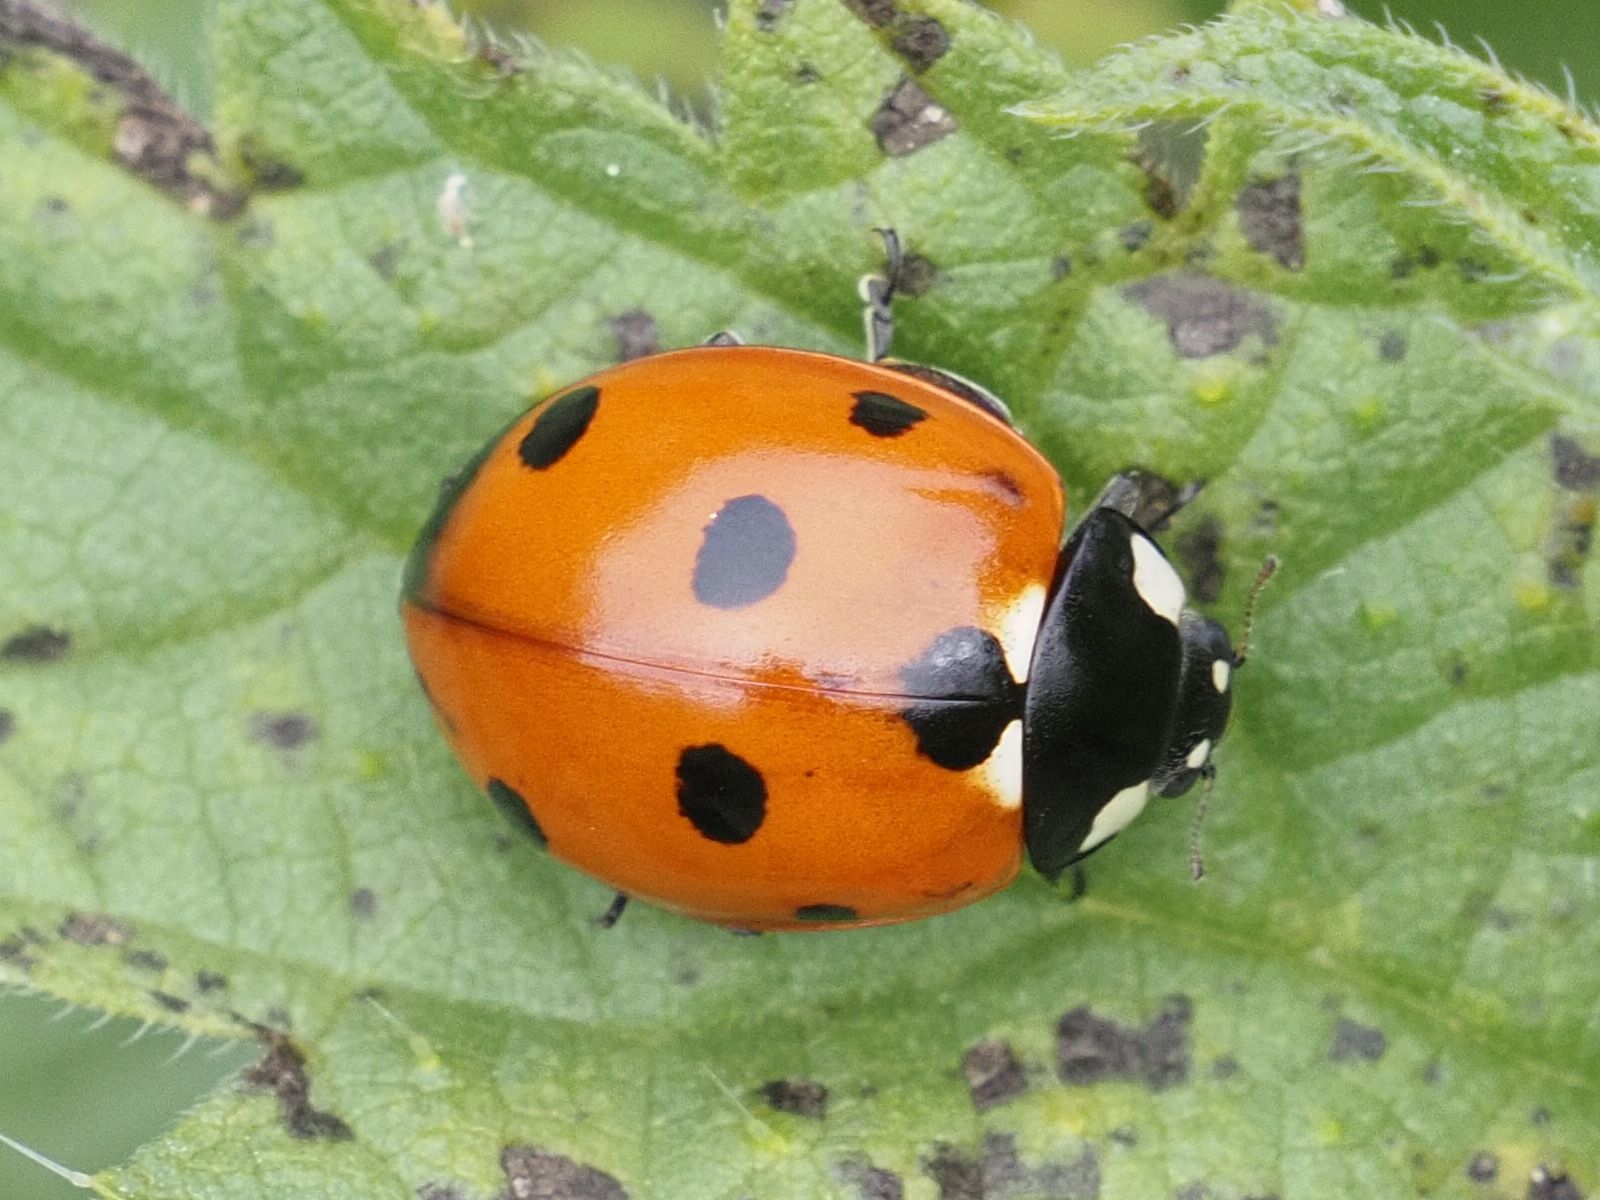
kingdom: Animalia
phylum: Arthropoda
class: Insecta
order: Coleoptera
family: Coccinellidae
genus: Coccinella
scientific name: Coccinella septempunctata
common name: Sevenspotted lady beetle
